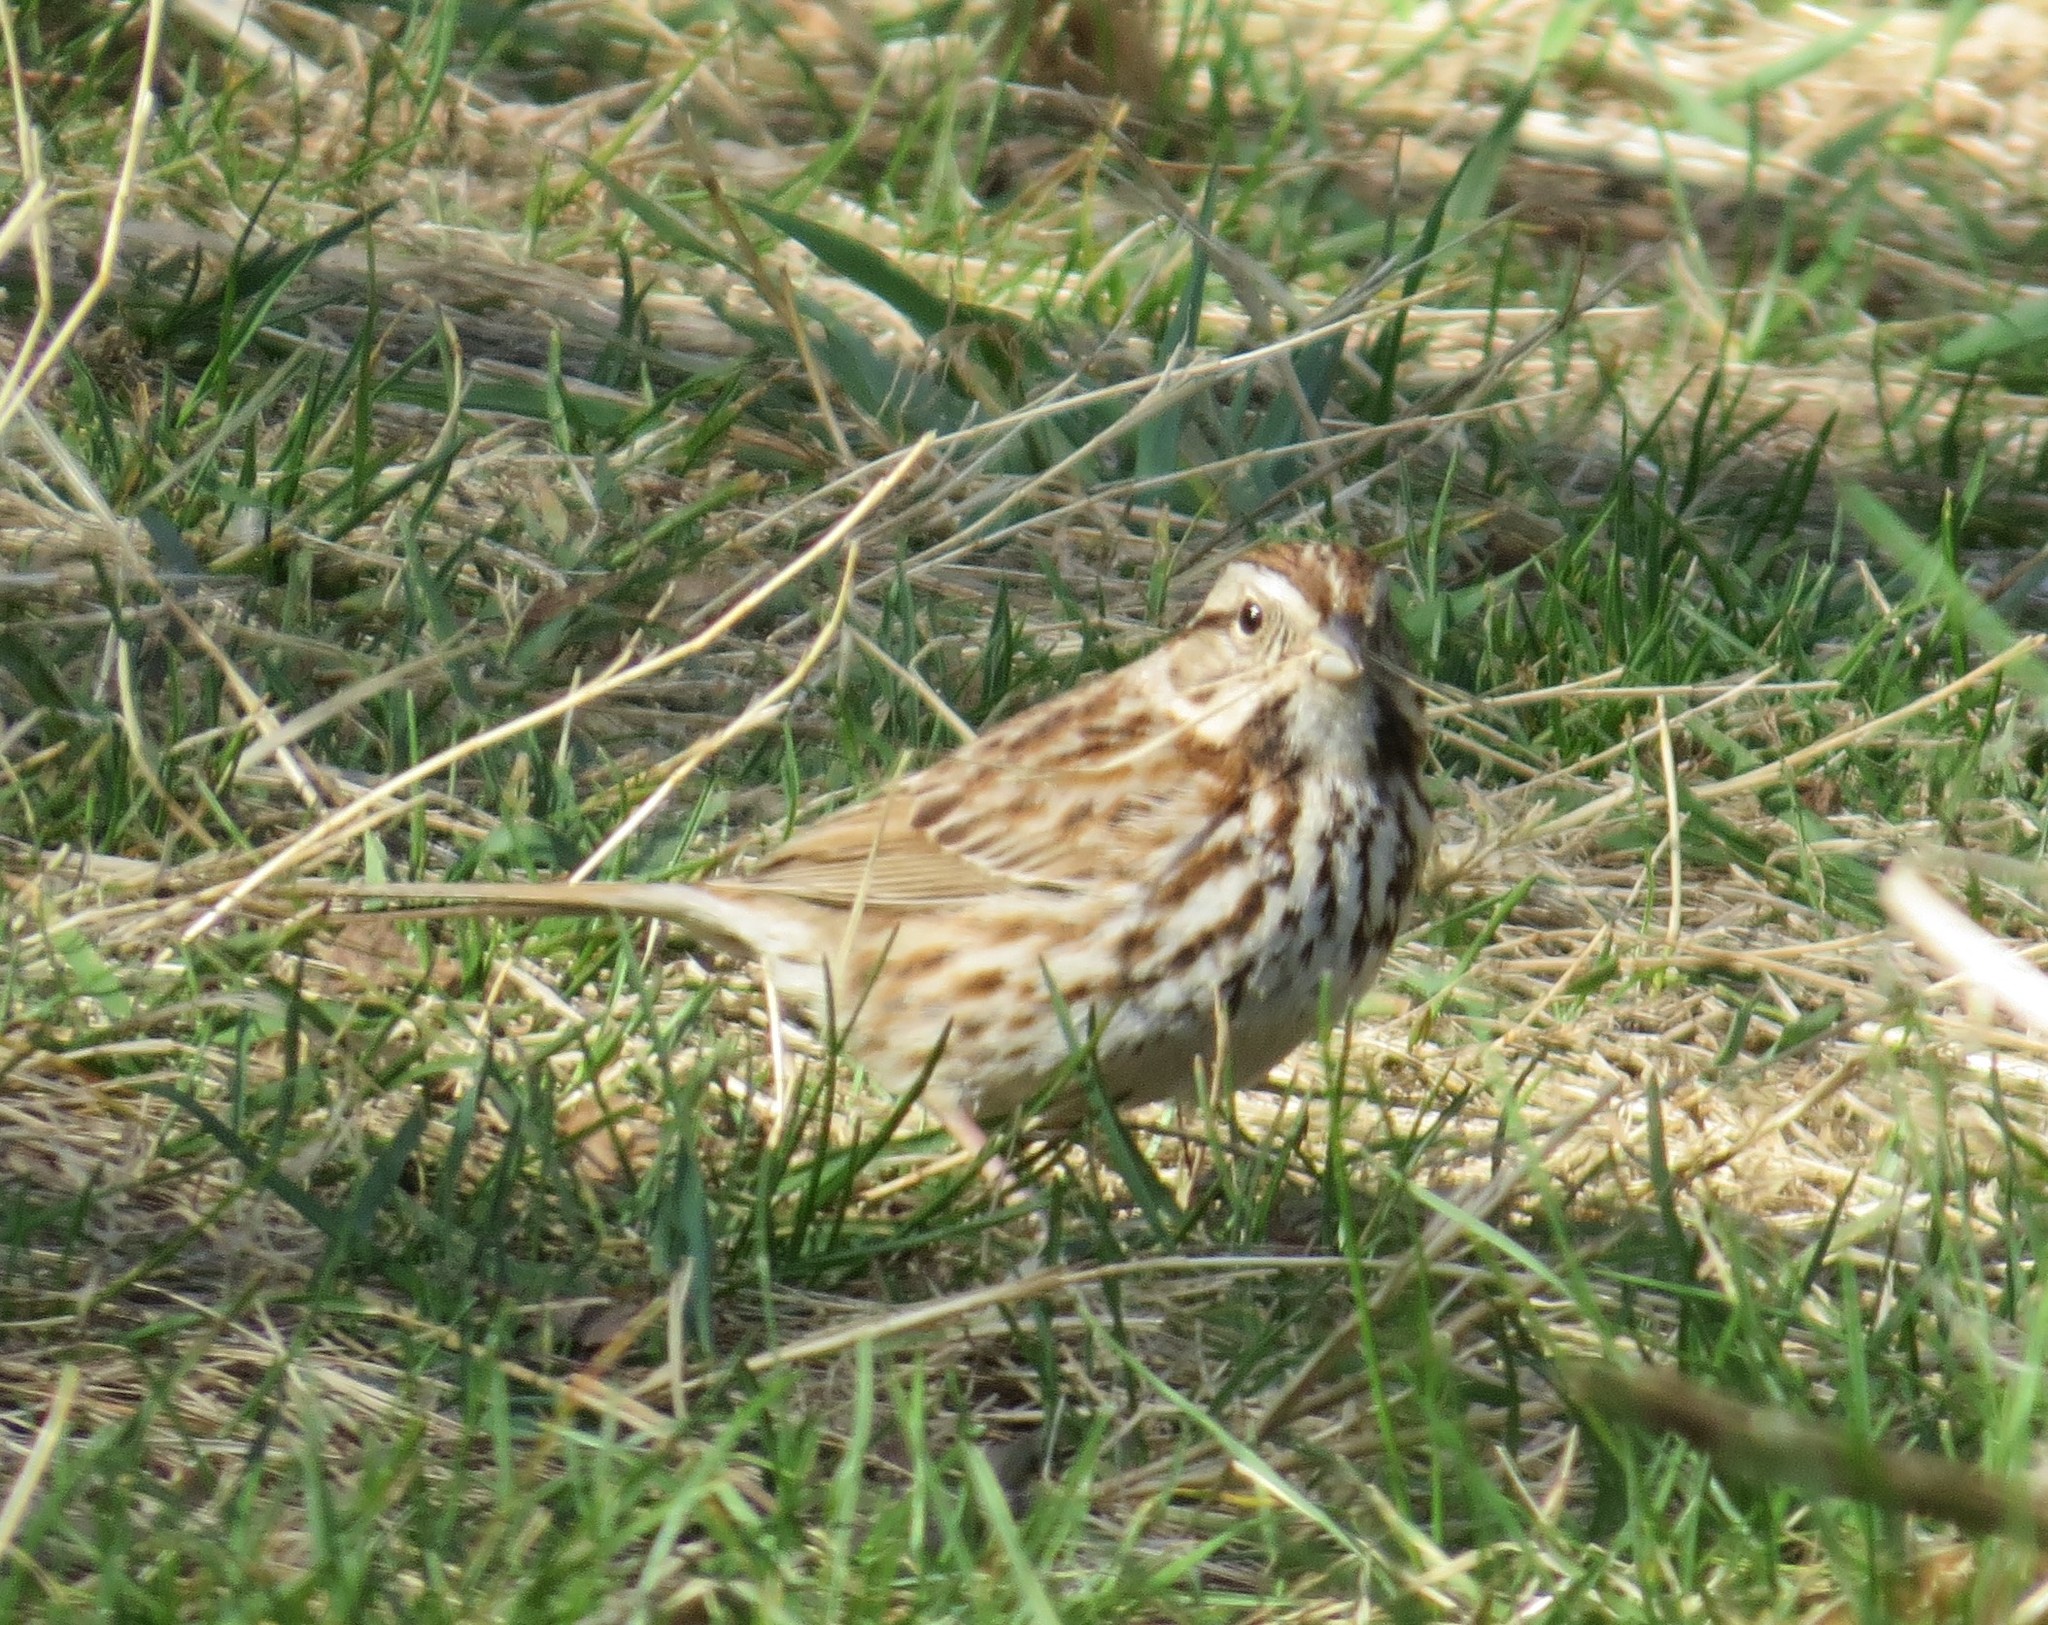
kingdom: Animalia
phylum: Chordata
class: Aves
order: Passeriformes
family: Passerellidae
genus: Melospiza
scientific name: Melospiza melodia
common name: Song sparrow
